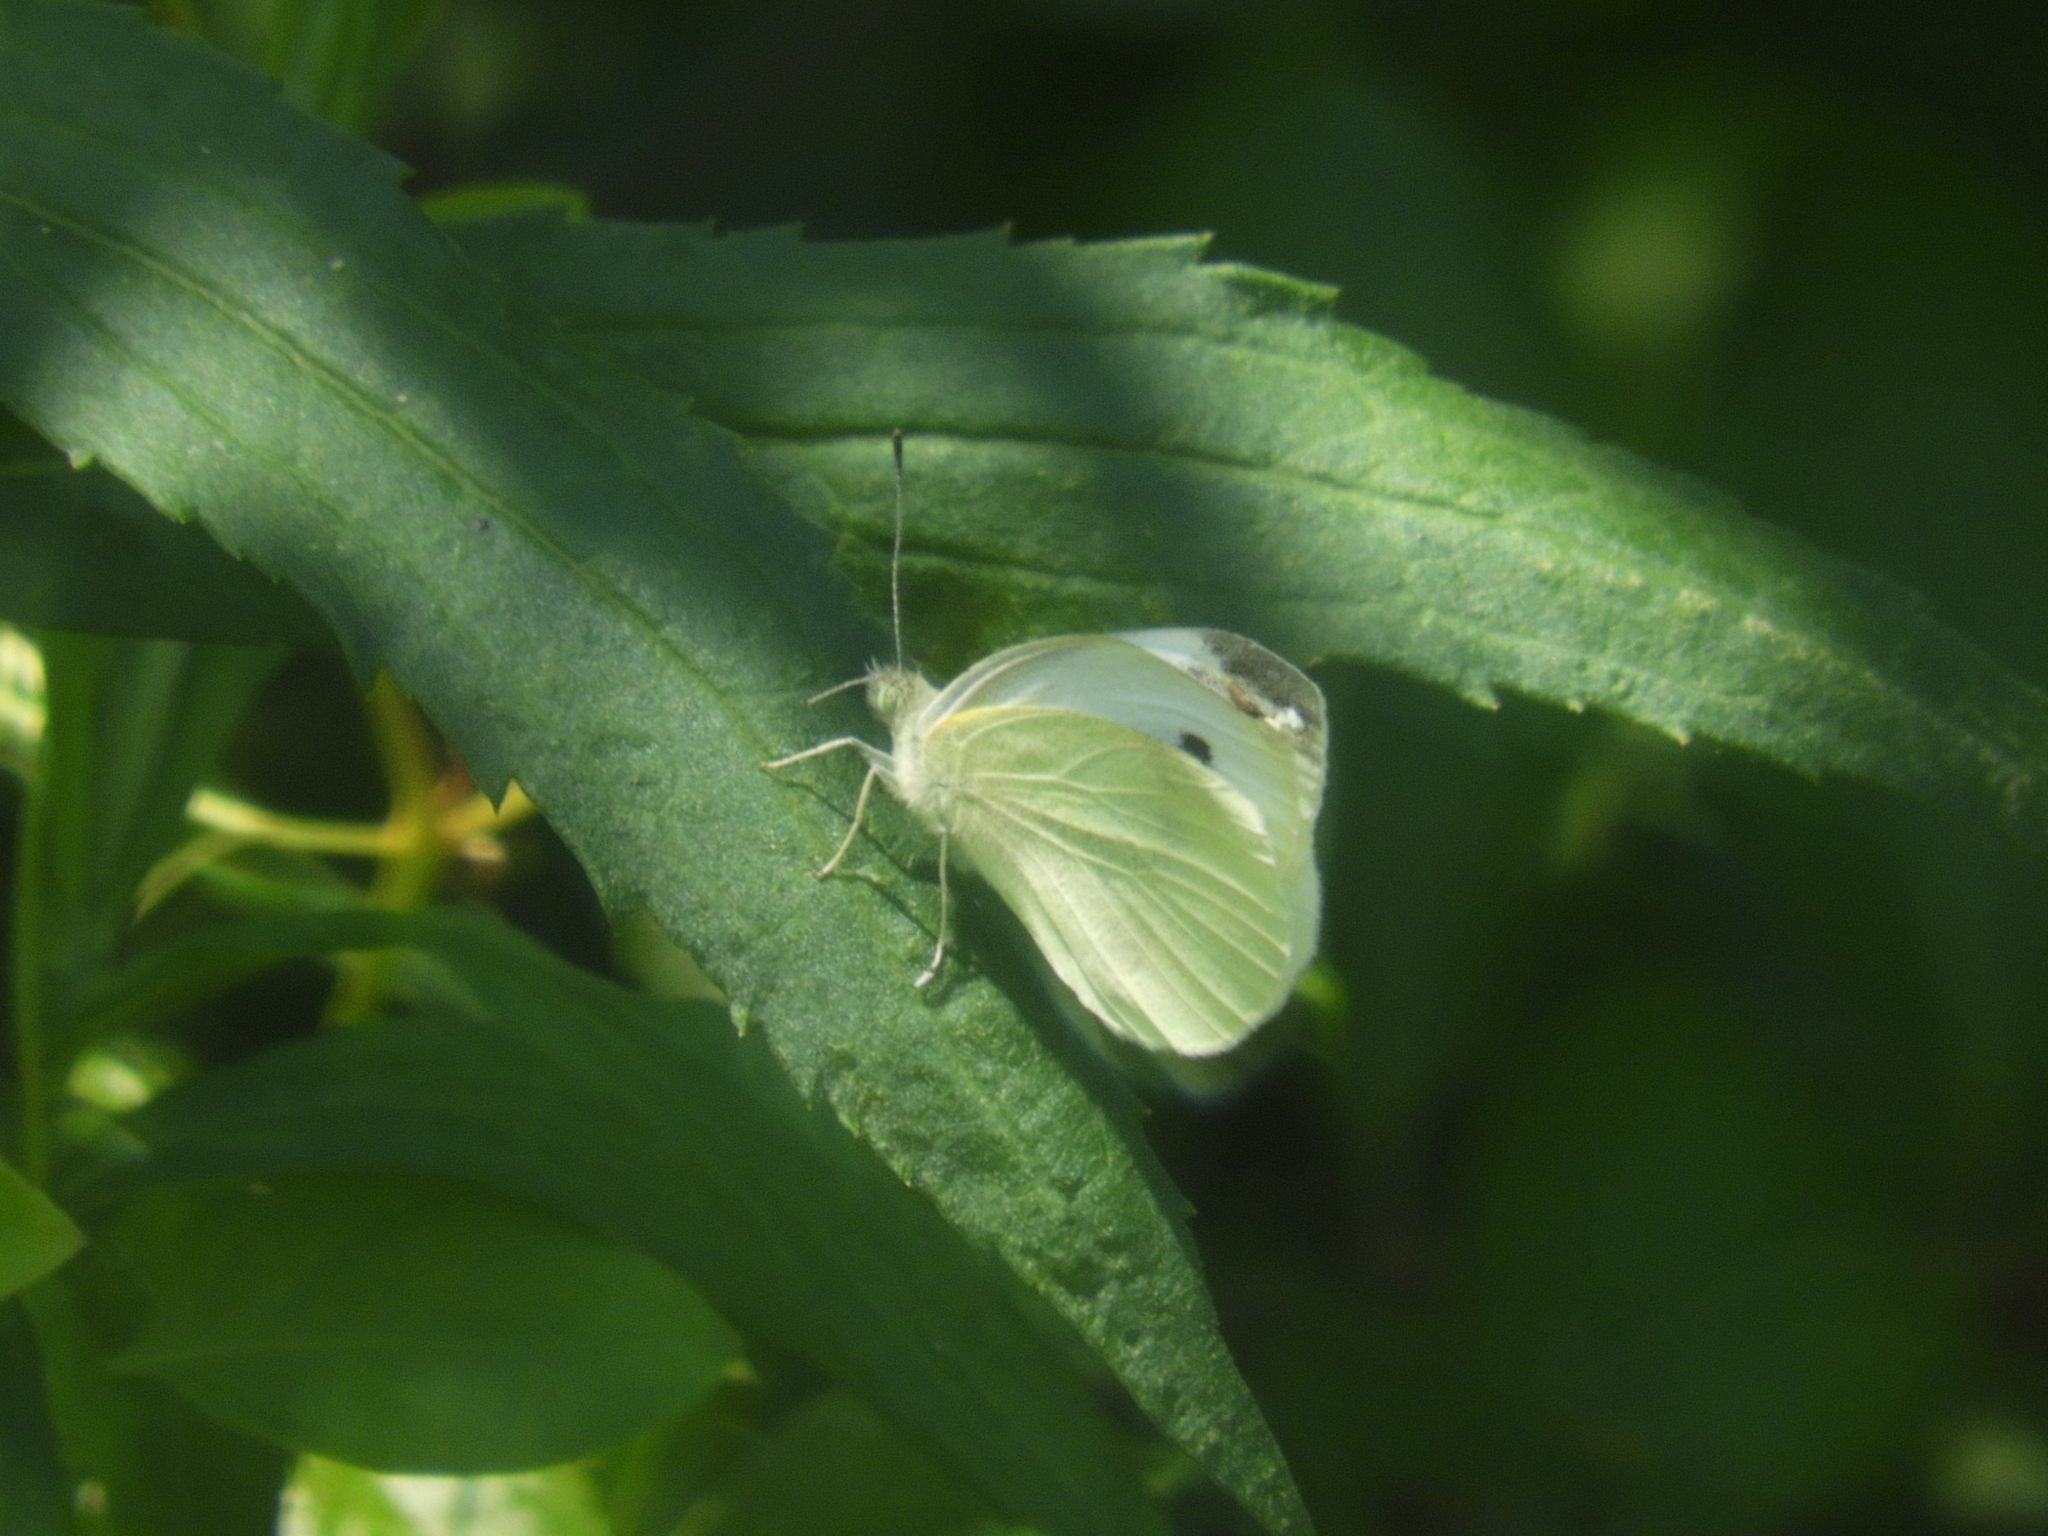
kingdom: Animalia
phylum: Arthropoda
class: Insecta
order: Lepidoptera
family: Pieridae
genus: Pieris
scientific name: Pieris rapae
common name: Small white
